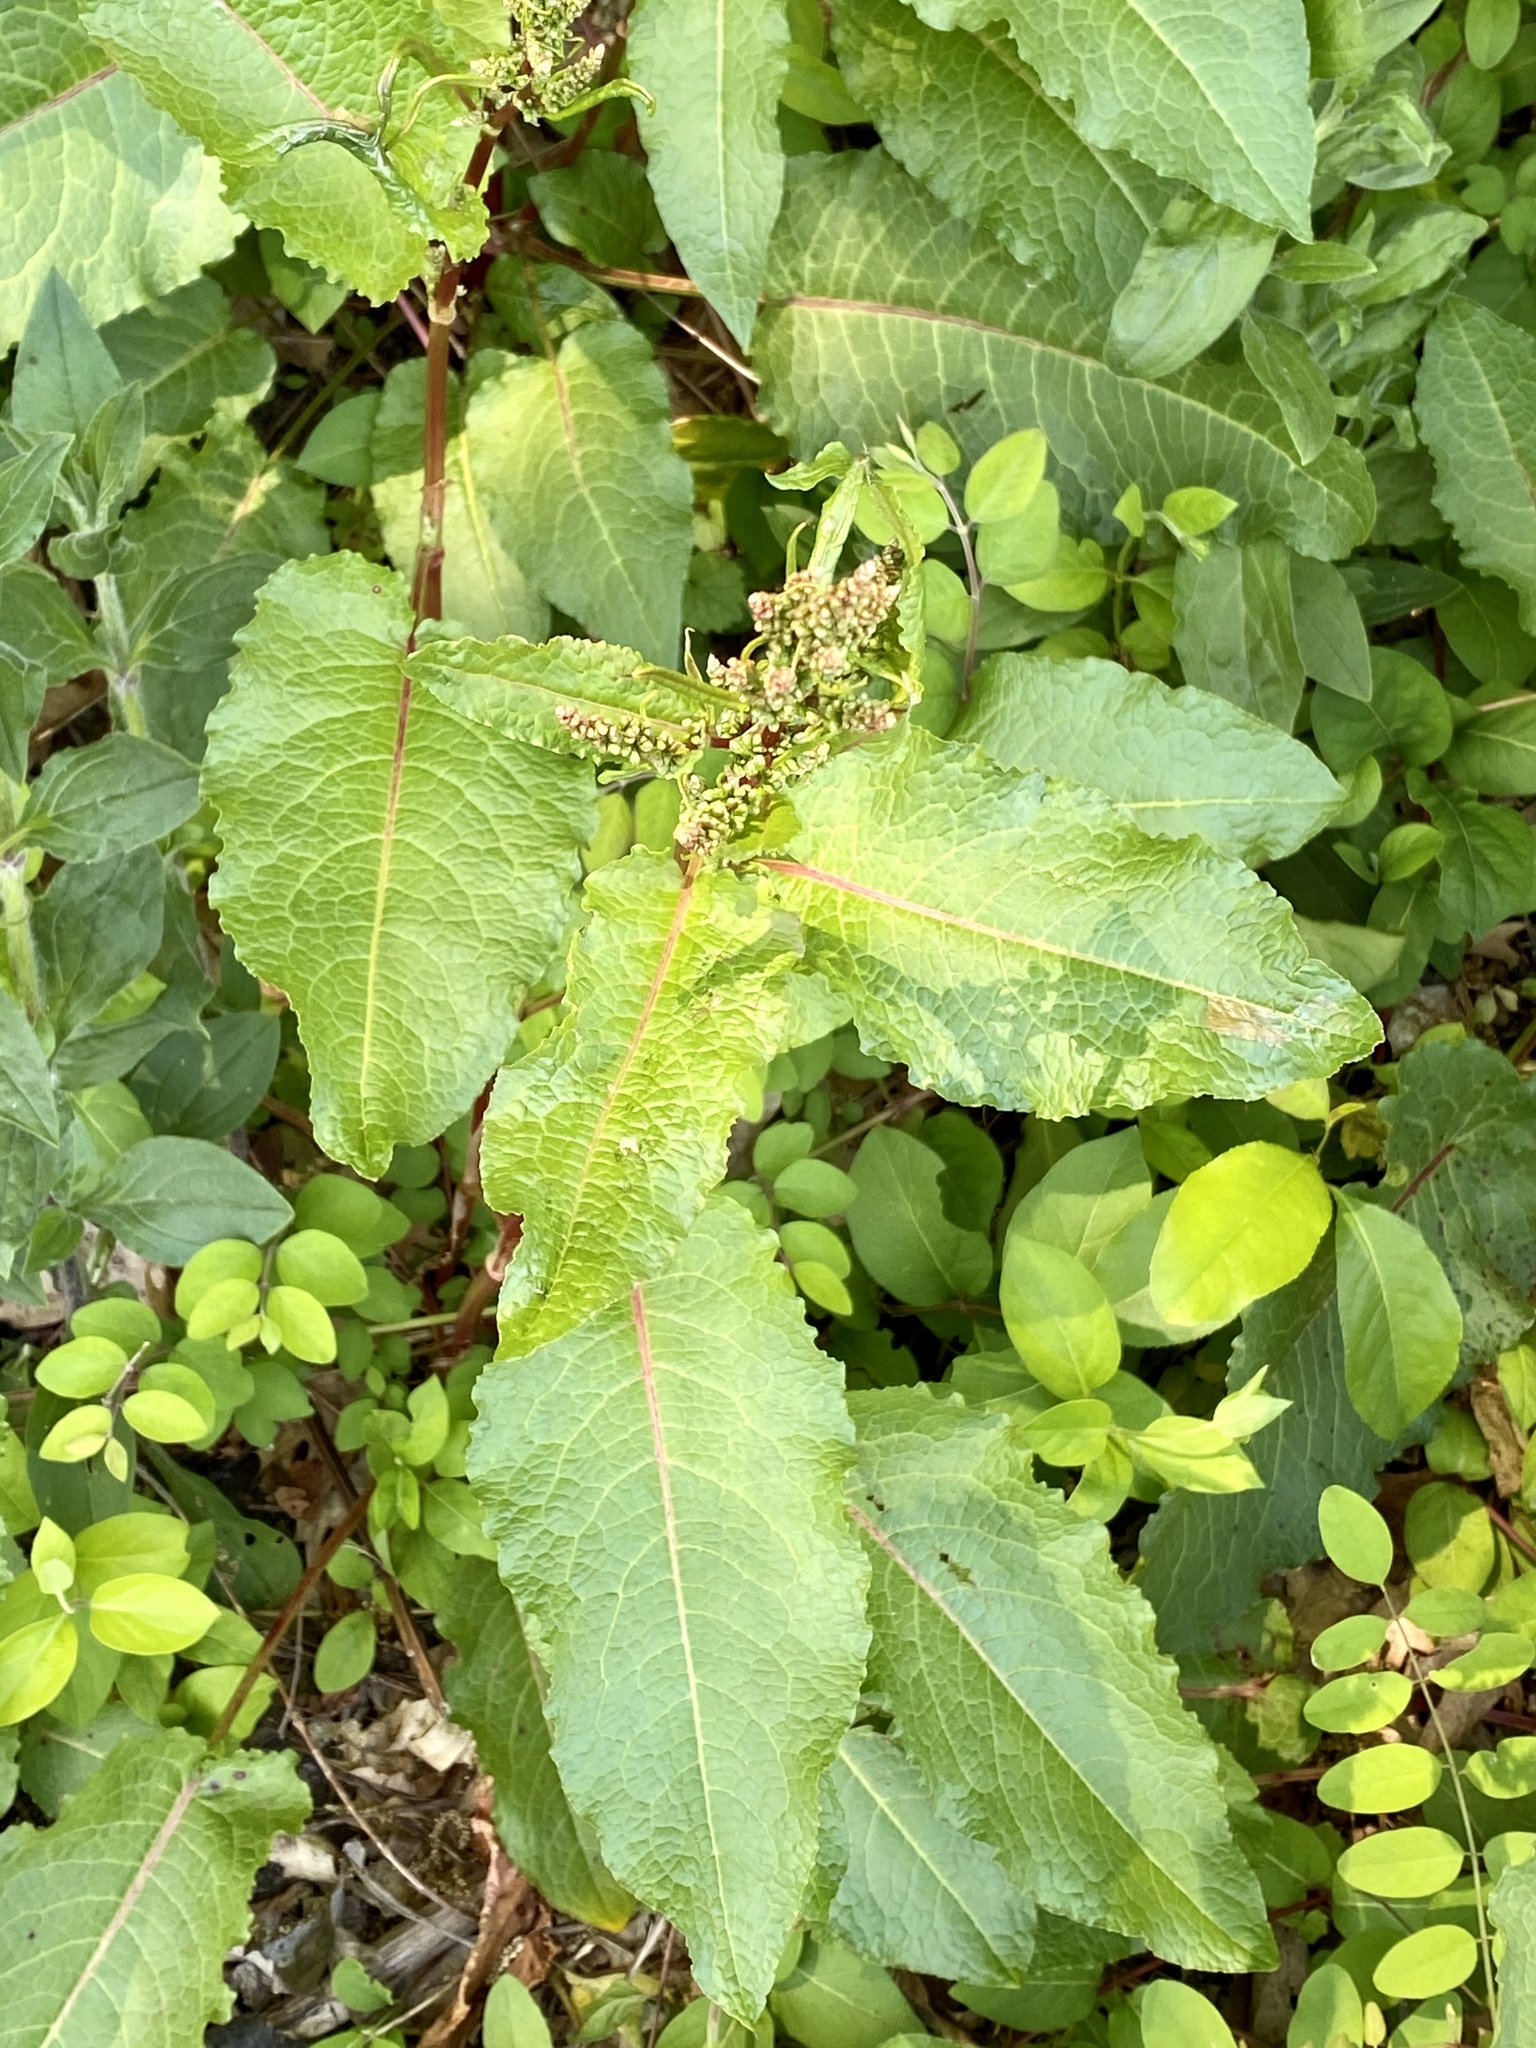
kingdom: Plantae
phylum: Tracheophyta
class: Magnoliopsida
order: Caryophyllales
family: Polygonaceae
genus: Rumex
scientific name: Rumex obtusifolius
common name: Bitter dock
